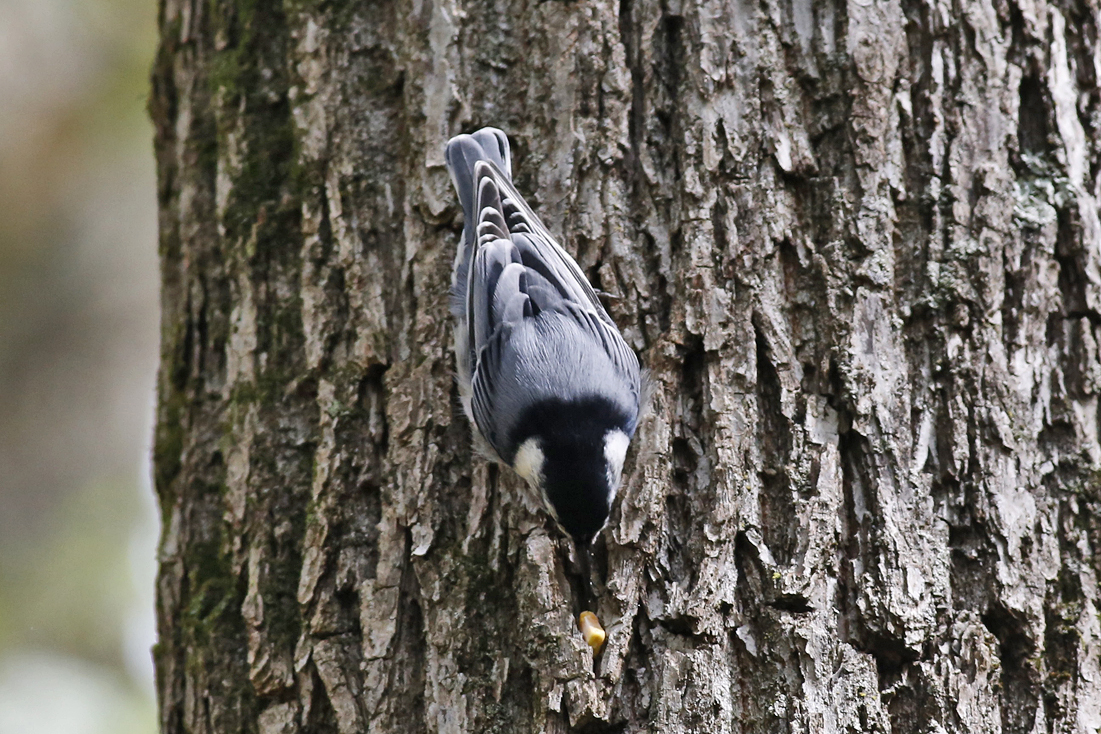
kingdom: Animalia
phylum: Chordata
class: Aves
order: Passeriformes
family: Sittidae
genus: Sitta
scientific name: Sitta carolinensis
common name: White-breasted nuthatch
